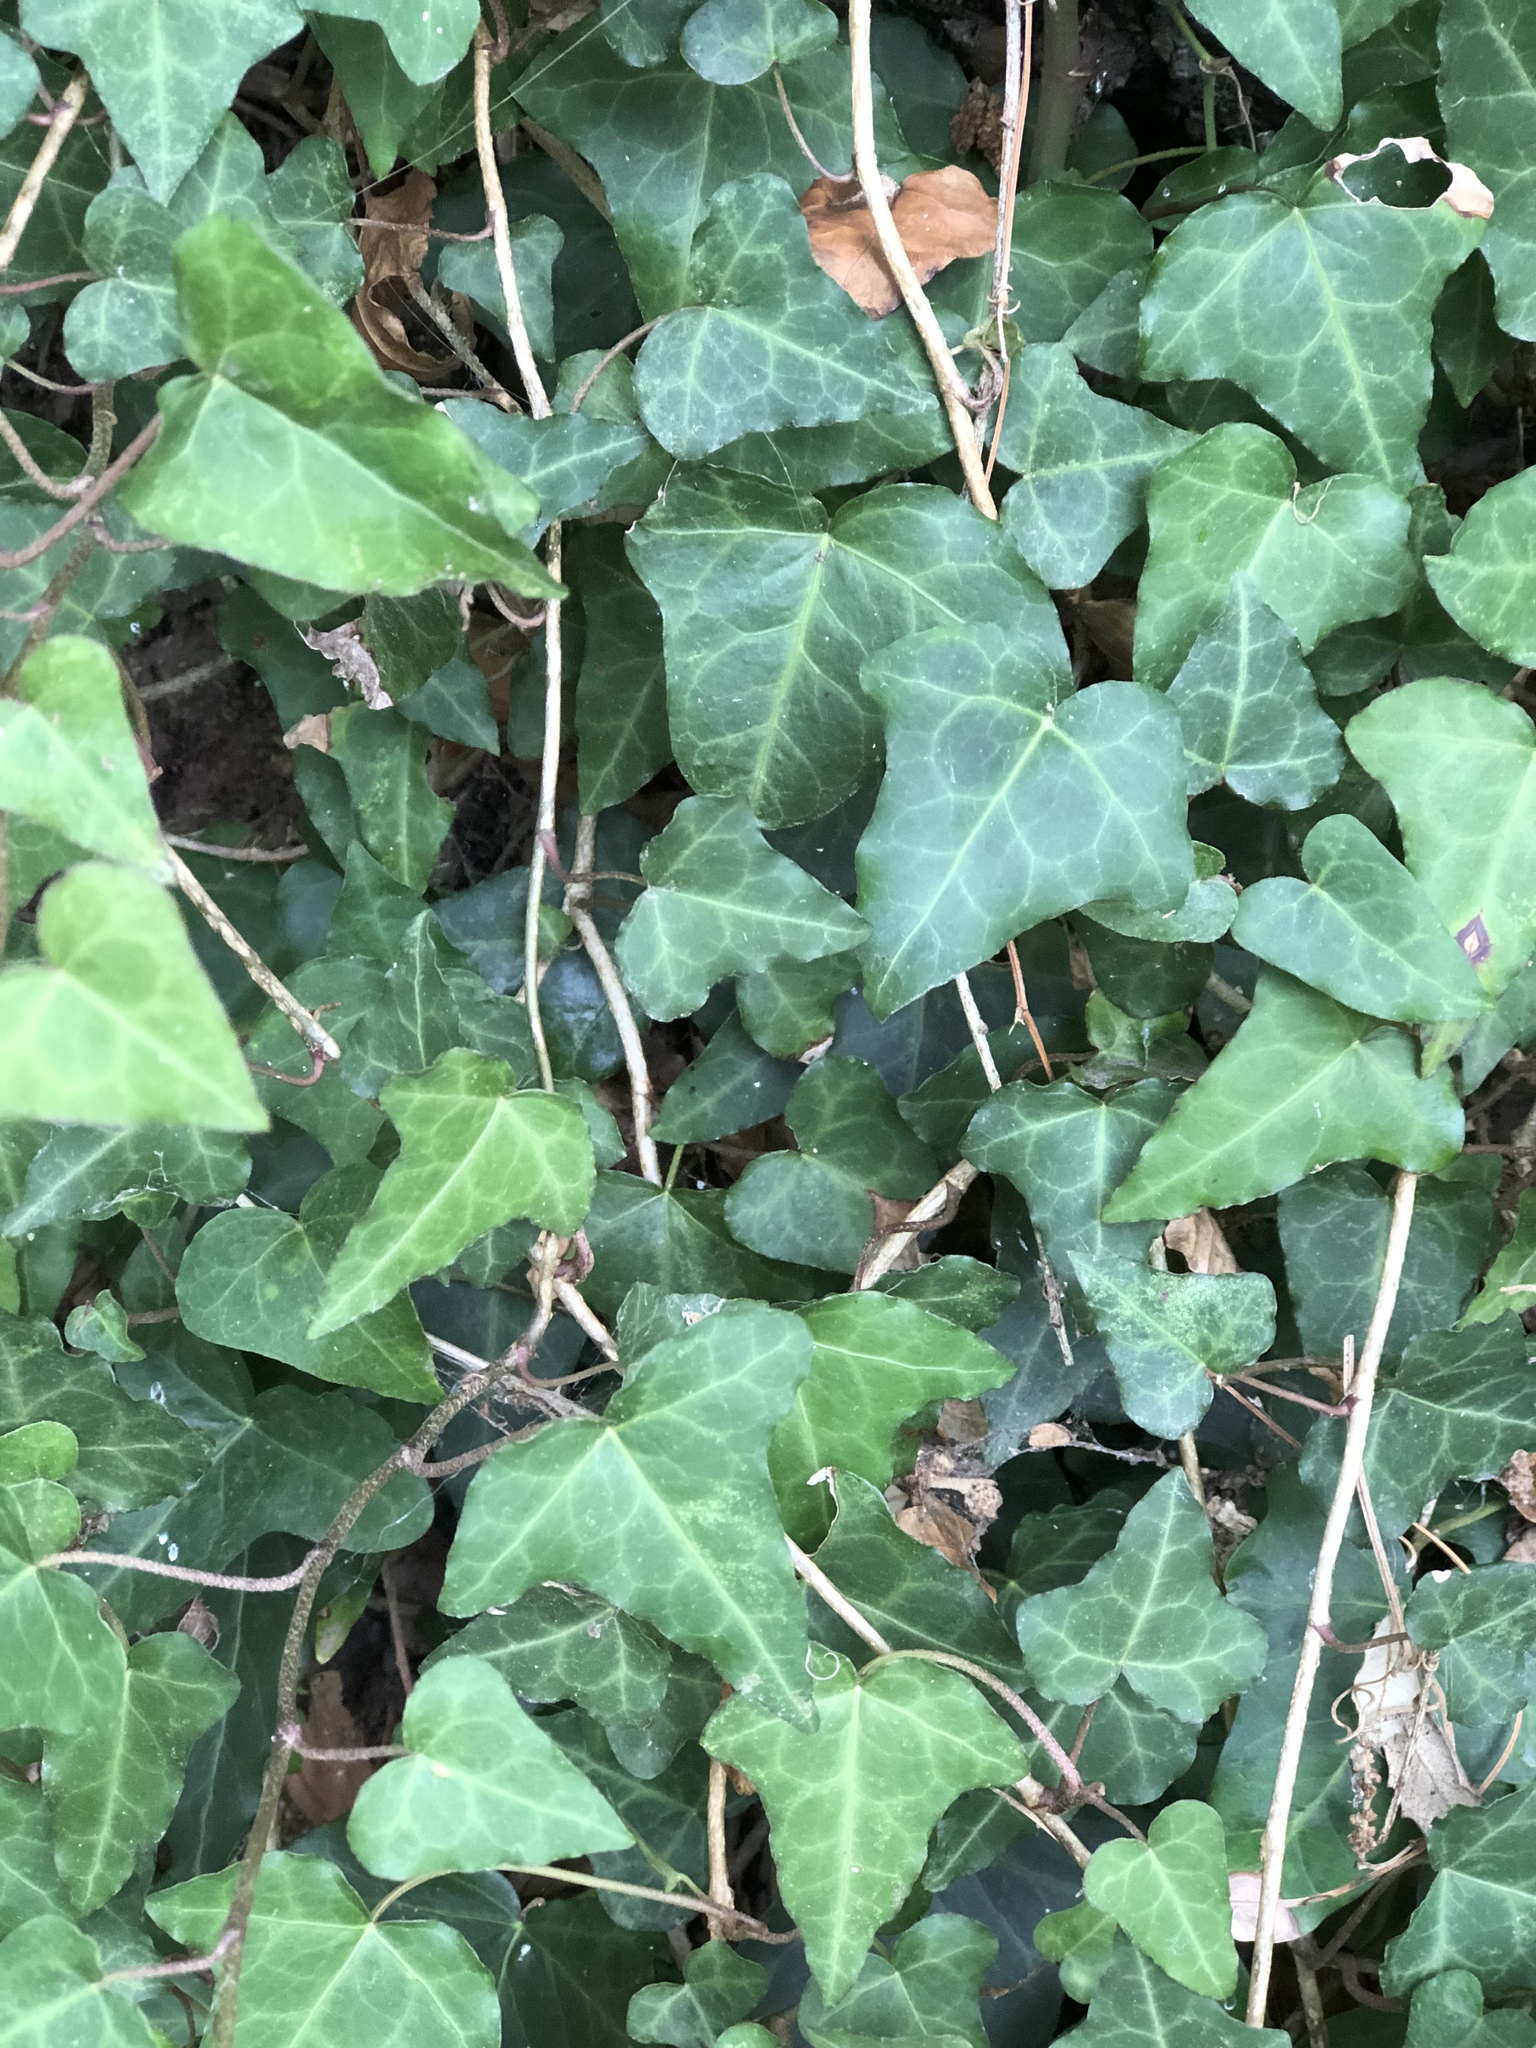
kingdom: Plantae
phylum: Tracheophyta
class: Magnoliopsida
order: Apiales
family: Araliaceae
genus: Hedera
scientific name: Hedera helix
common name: Ivy
